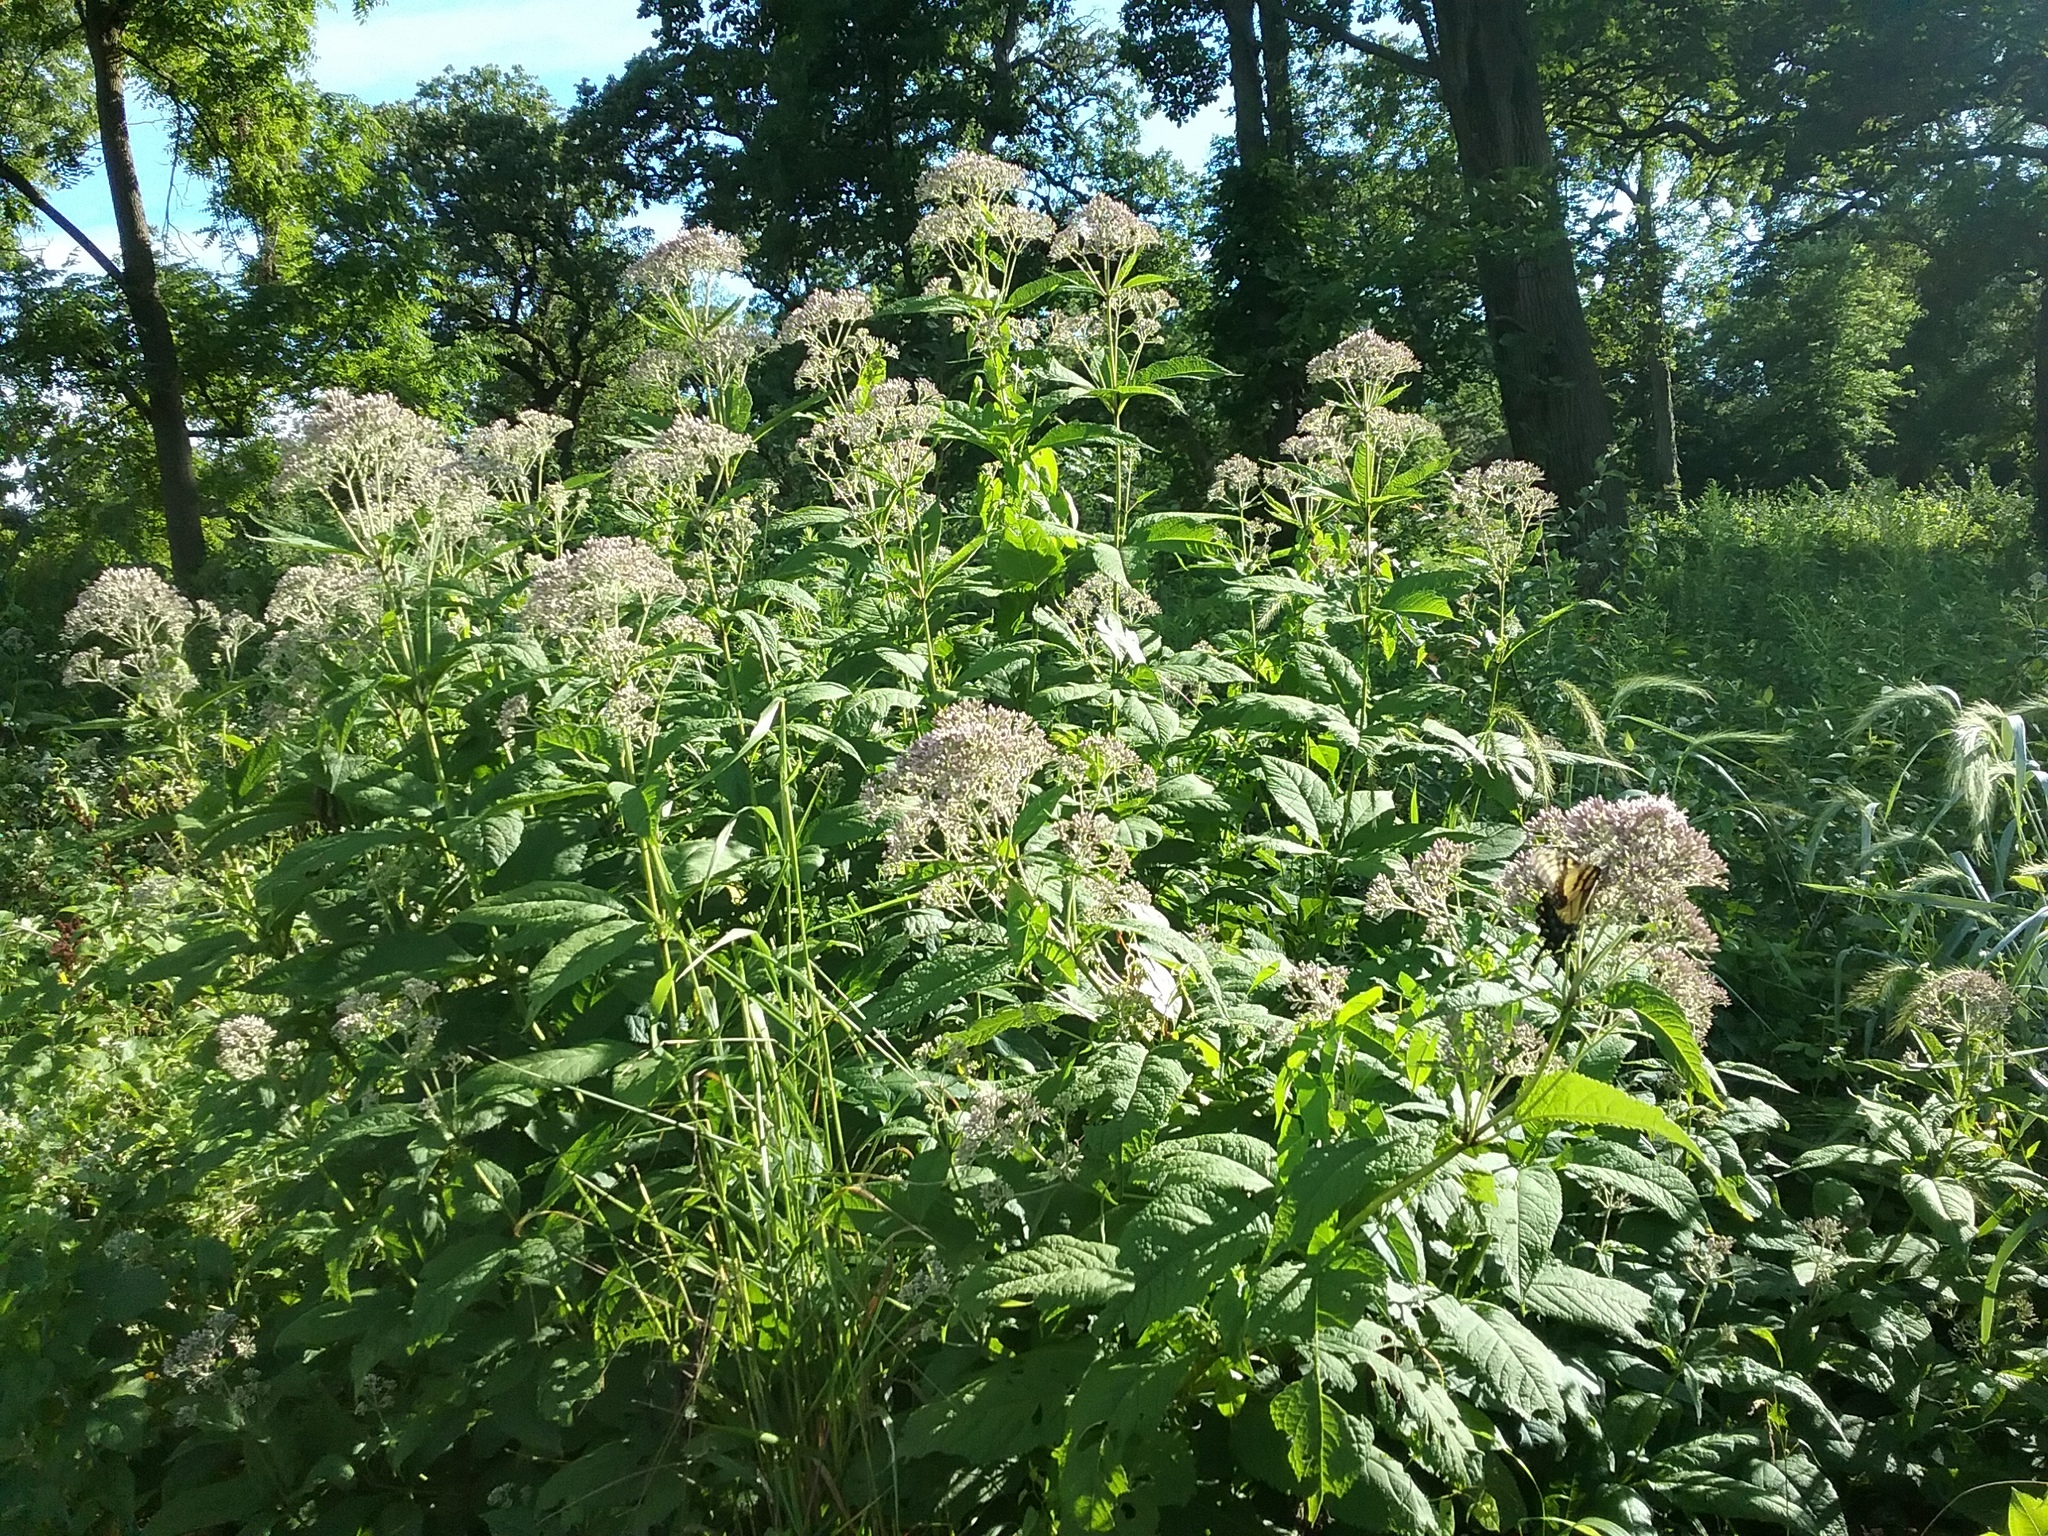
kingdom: Plantae
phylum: Tracheophyta
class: Magnoliopsida
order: Asterales
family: Asteraceae
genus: Eutrochium
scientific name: Eutrochium purpureum
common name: Gravelroot
